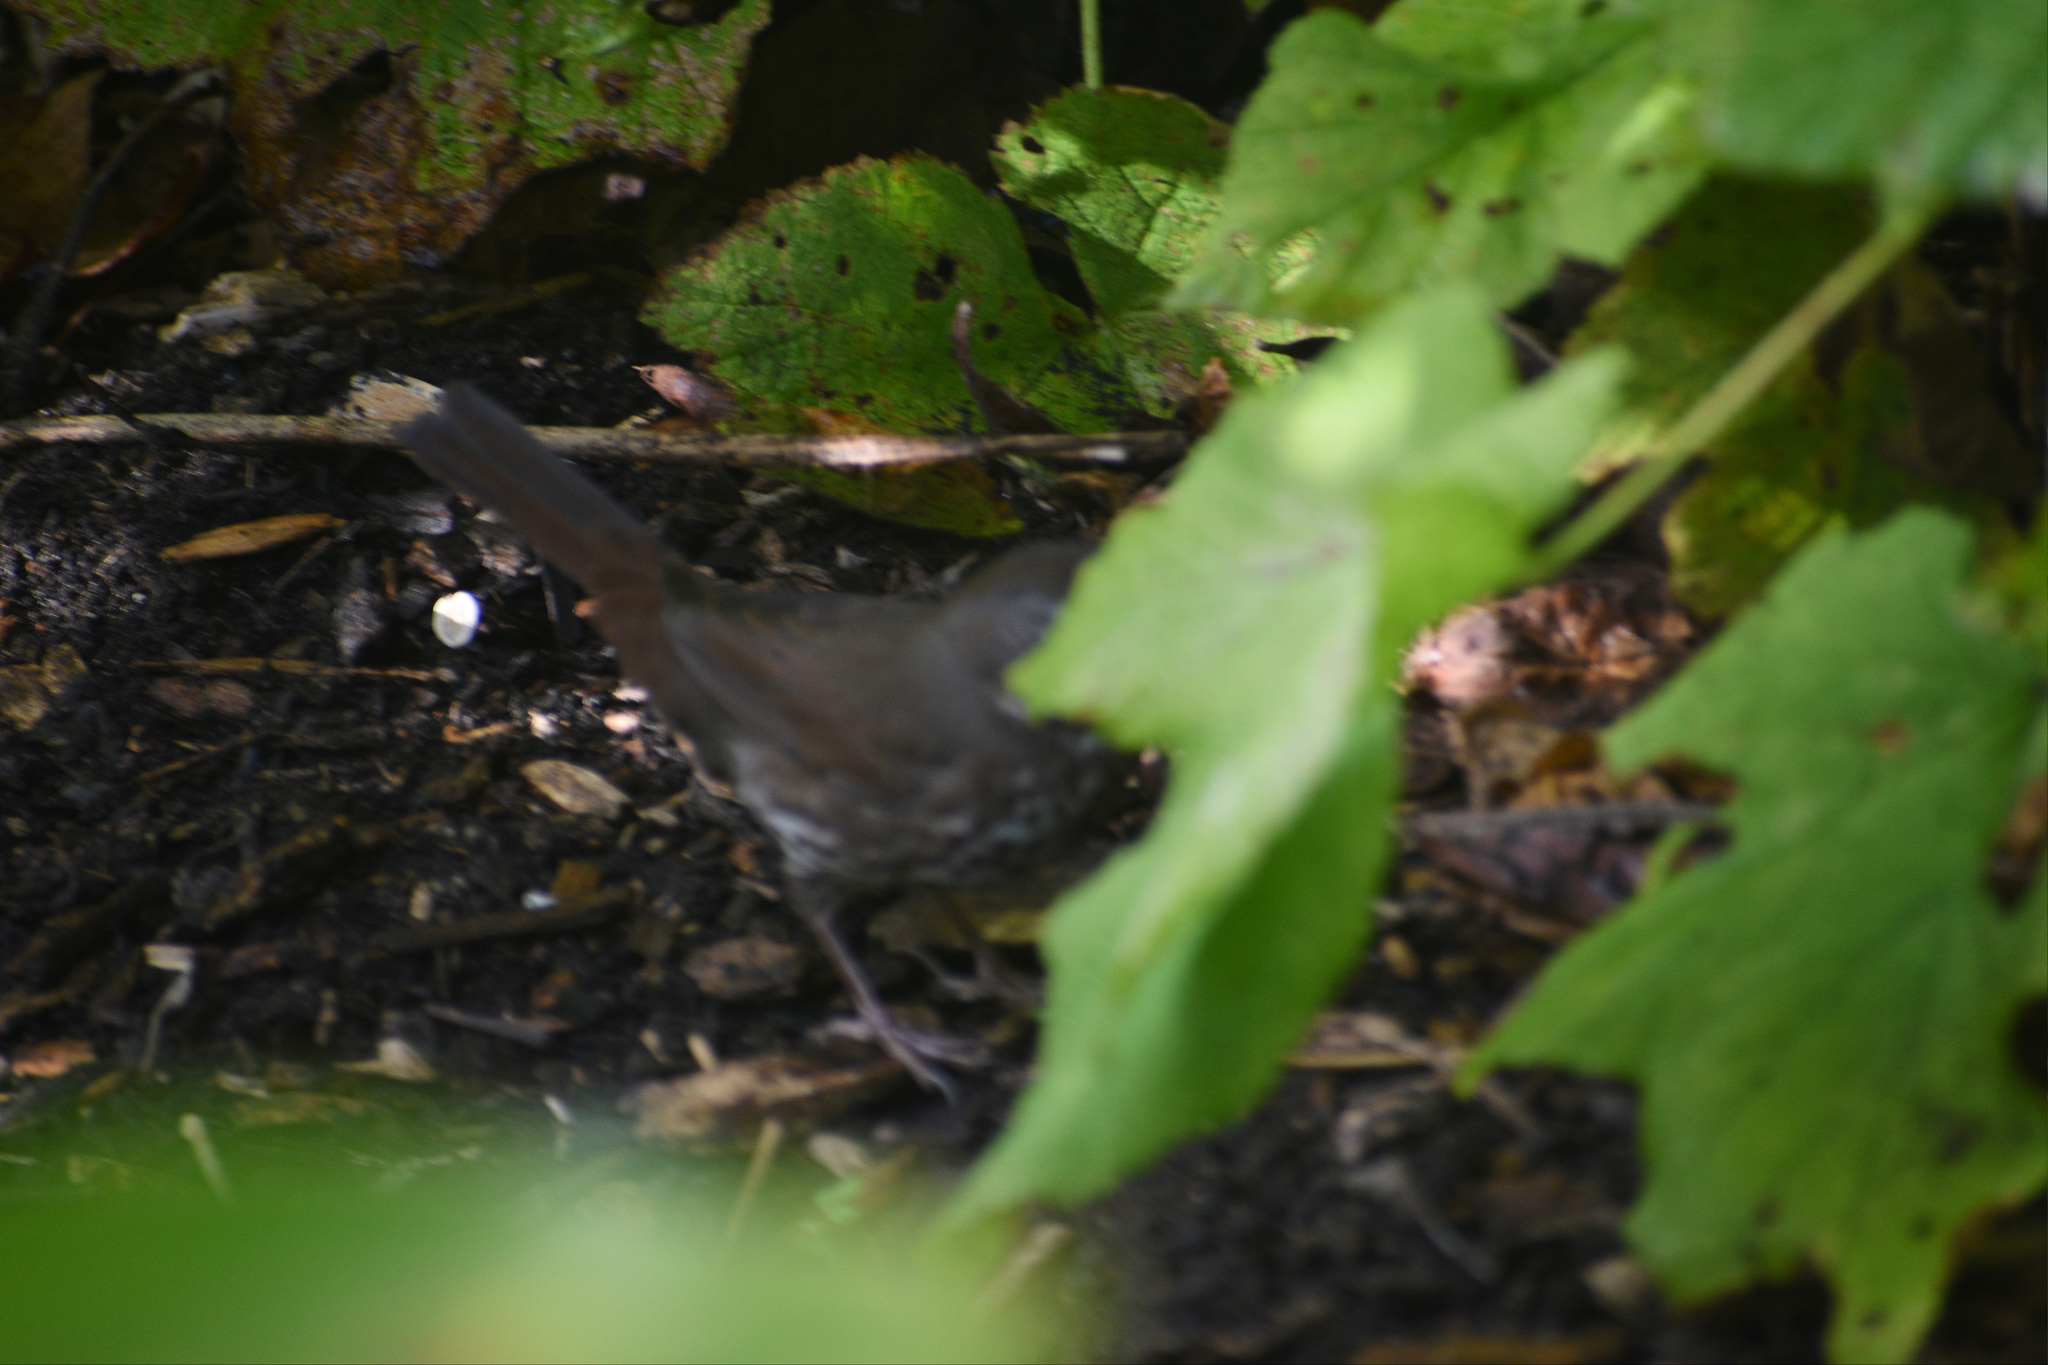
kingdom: Animalia
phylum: Chordata
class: Aves
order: Passeriformes
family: Passerellidae
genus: Passerella
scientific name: Passerella iliaca
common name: Fox sparrow
